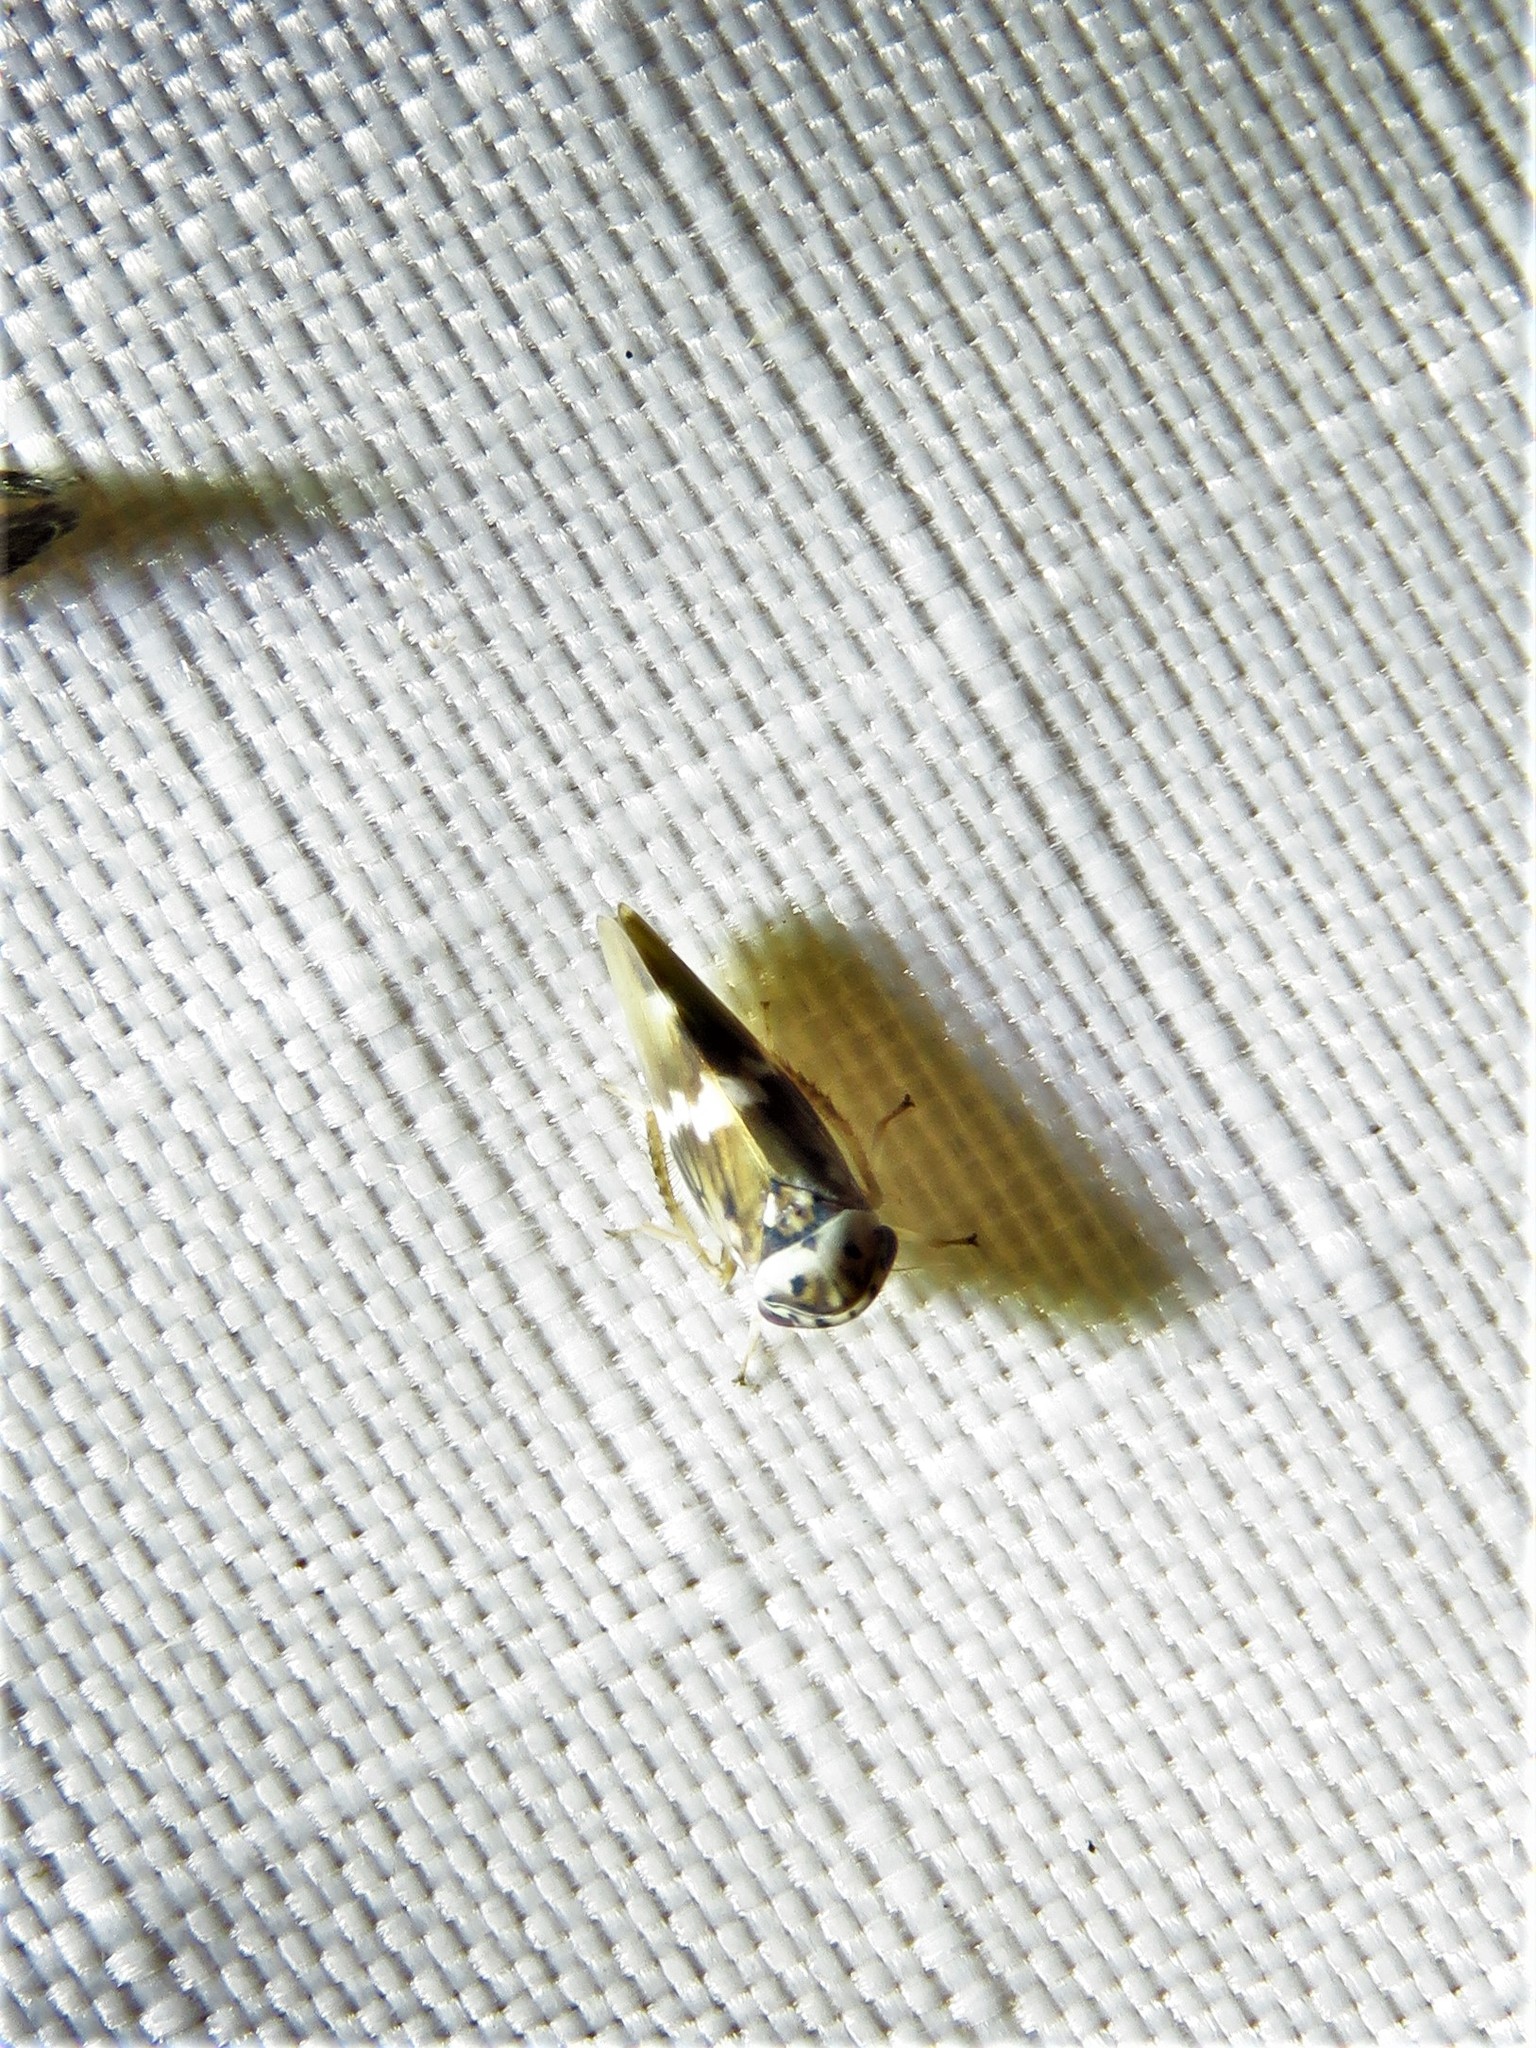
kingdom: Animalia
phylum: Arthropoda
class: Insecta
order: Hemiptera
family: Cicadellidae
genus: Agalliopsis
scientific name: Agalliopsis cervina
